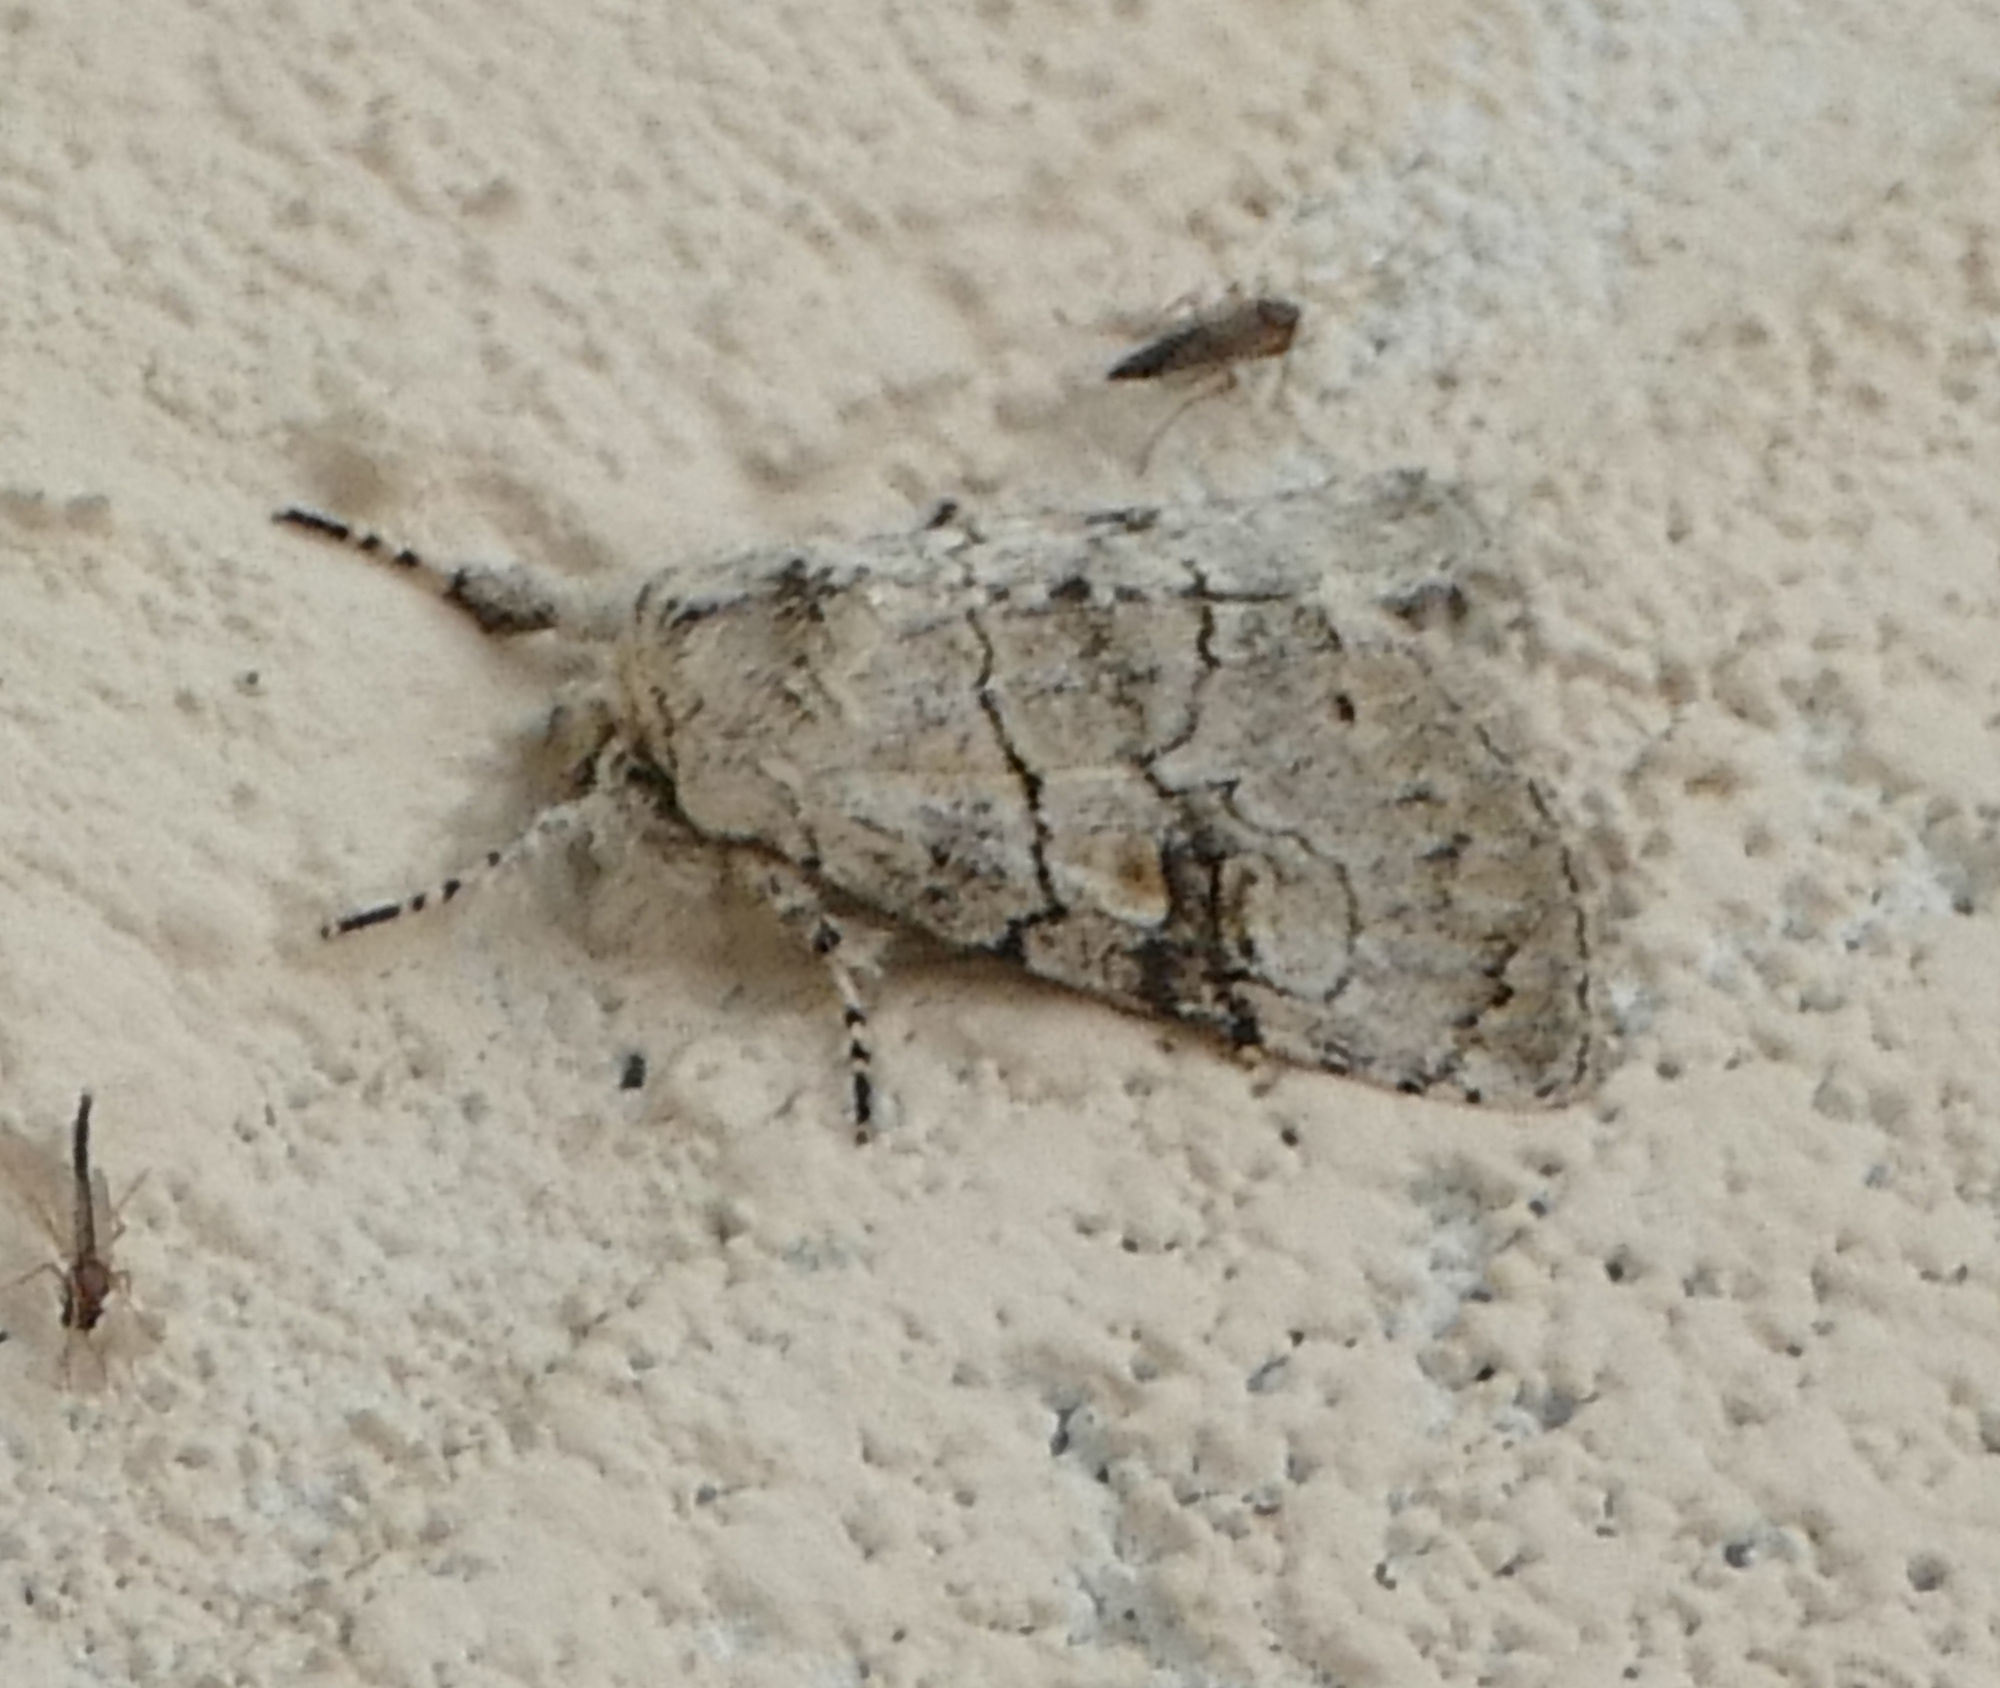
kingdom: Animalia
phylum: Arthropoda
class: Insecta
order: Lepidoptera
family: Noctuidae
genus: Charadra
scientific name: Charadra dispulsa
